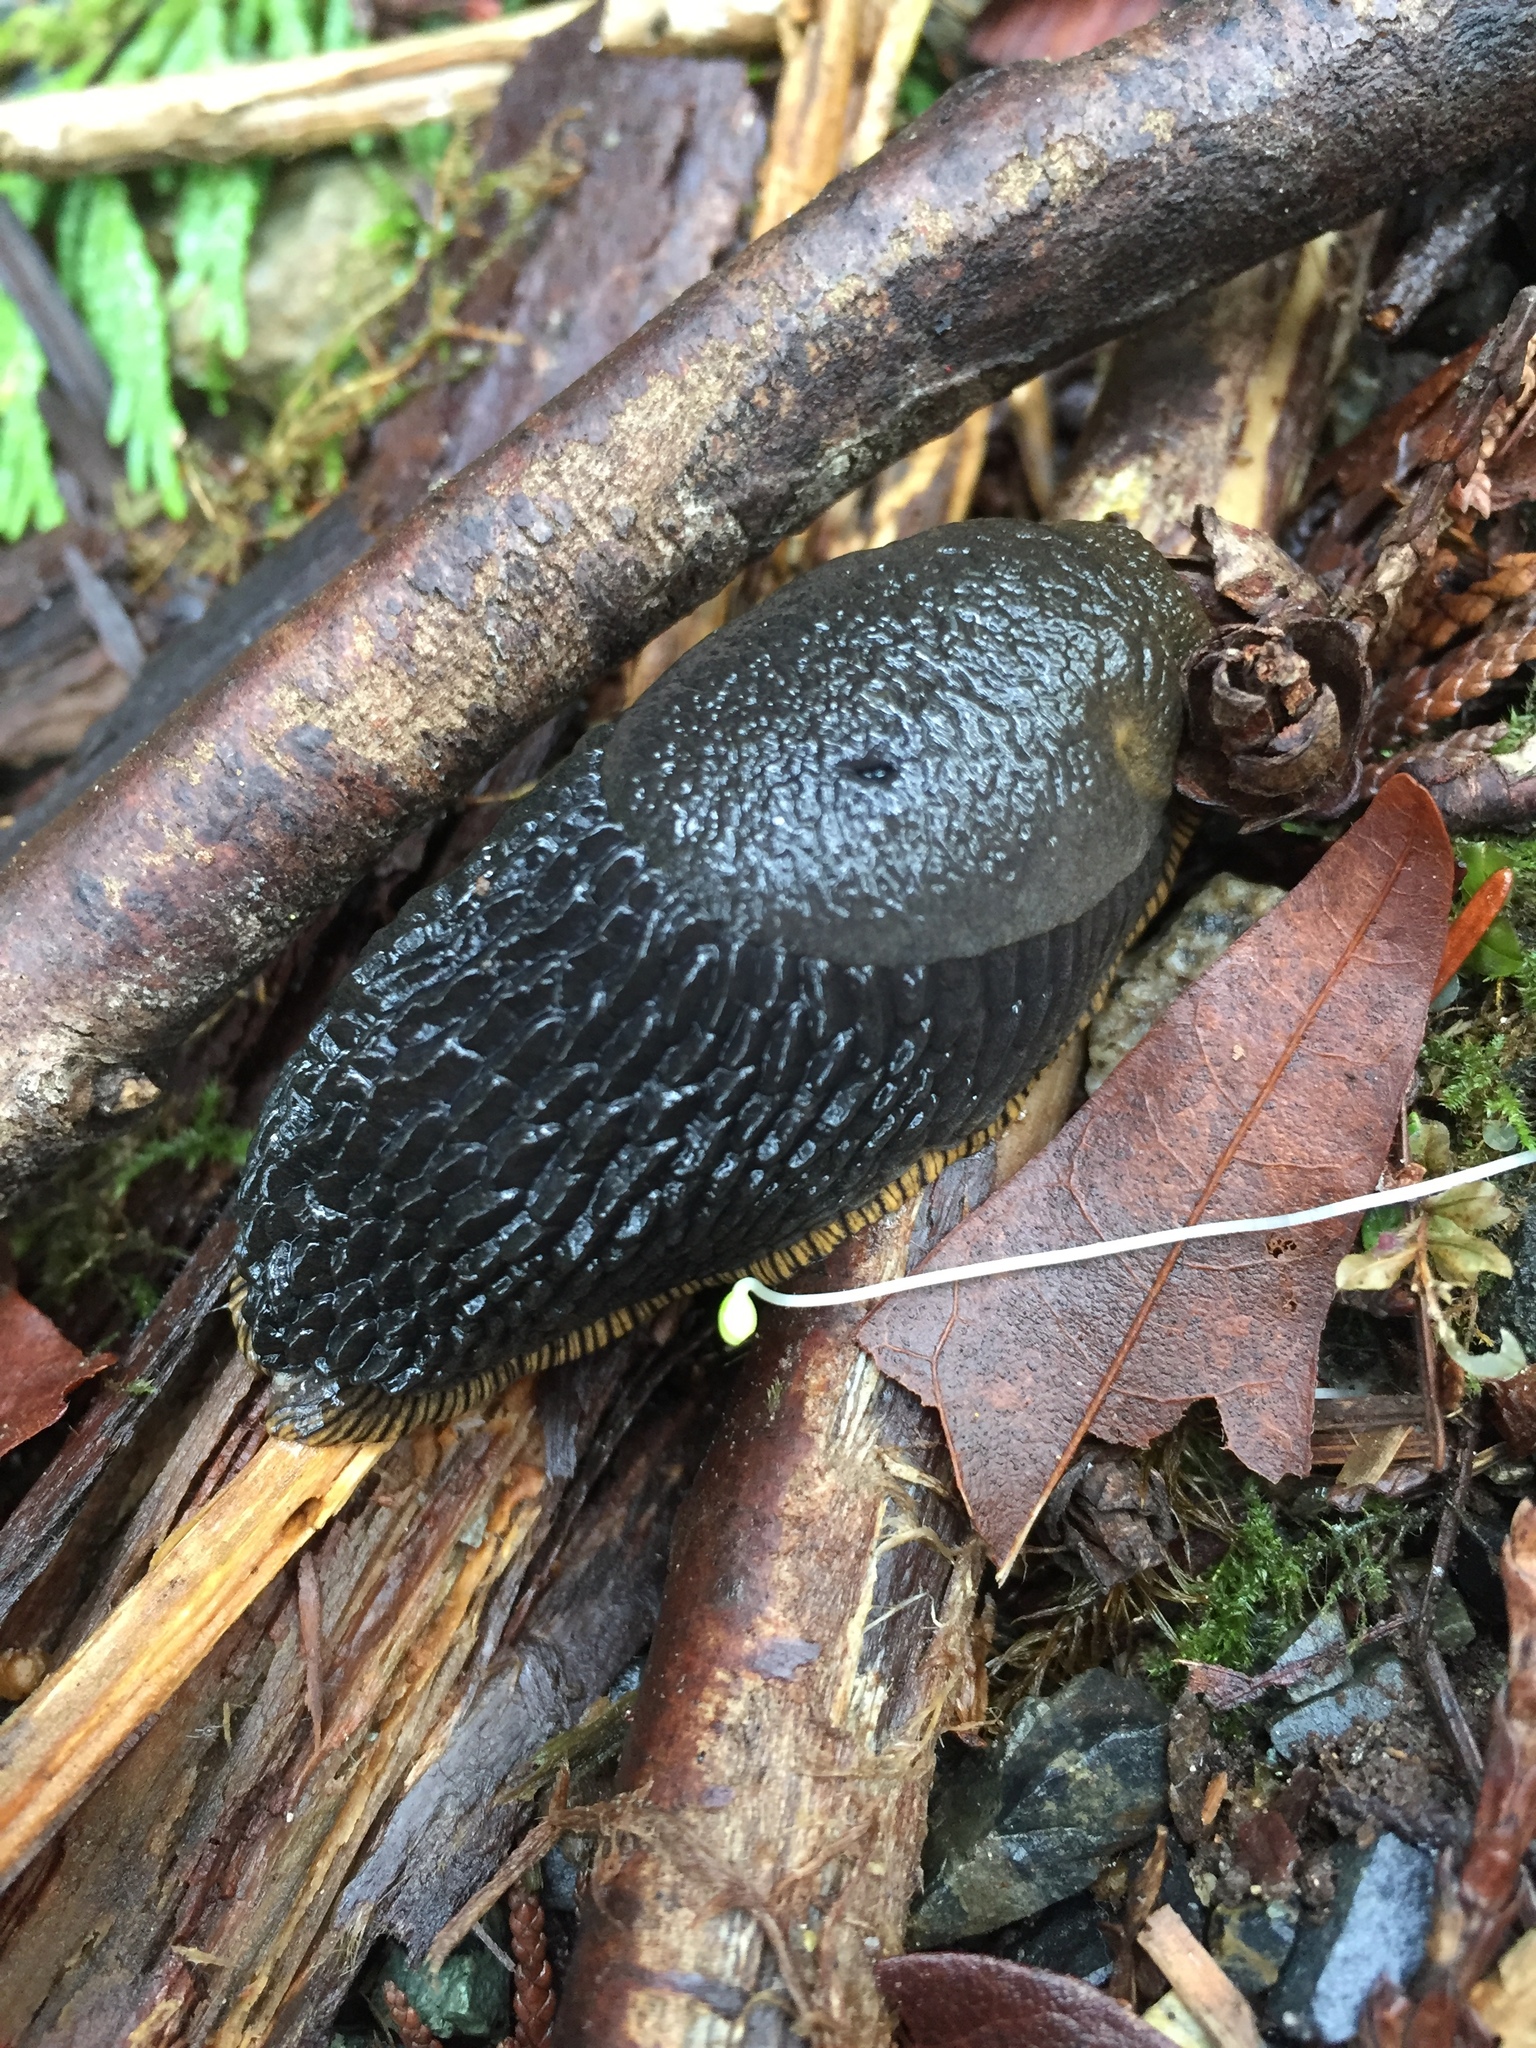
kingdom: Animalia
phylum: Mollusca
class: Gastropoda
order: Stylommatophora
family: Arionidae
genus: Arion
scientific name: Arion rufus
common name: Chocolate arion
